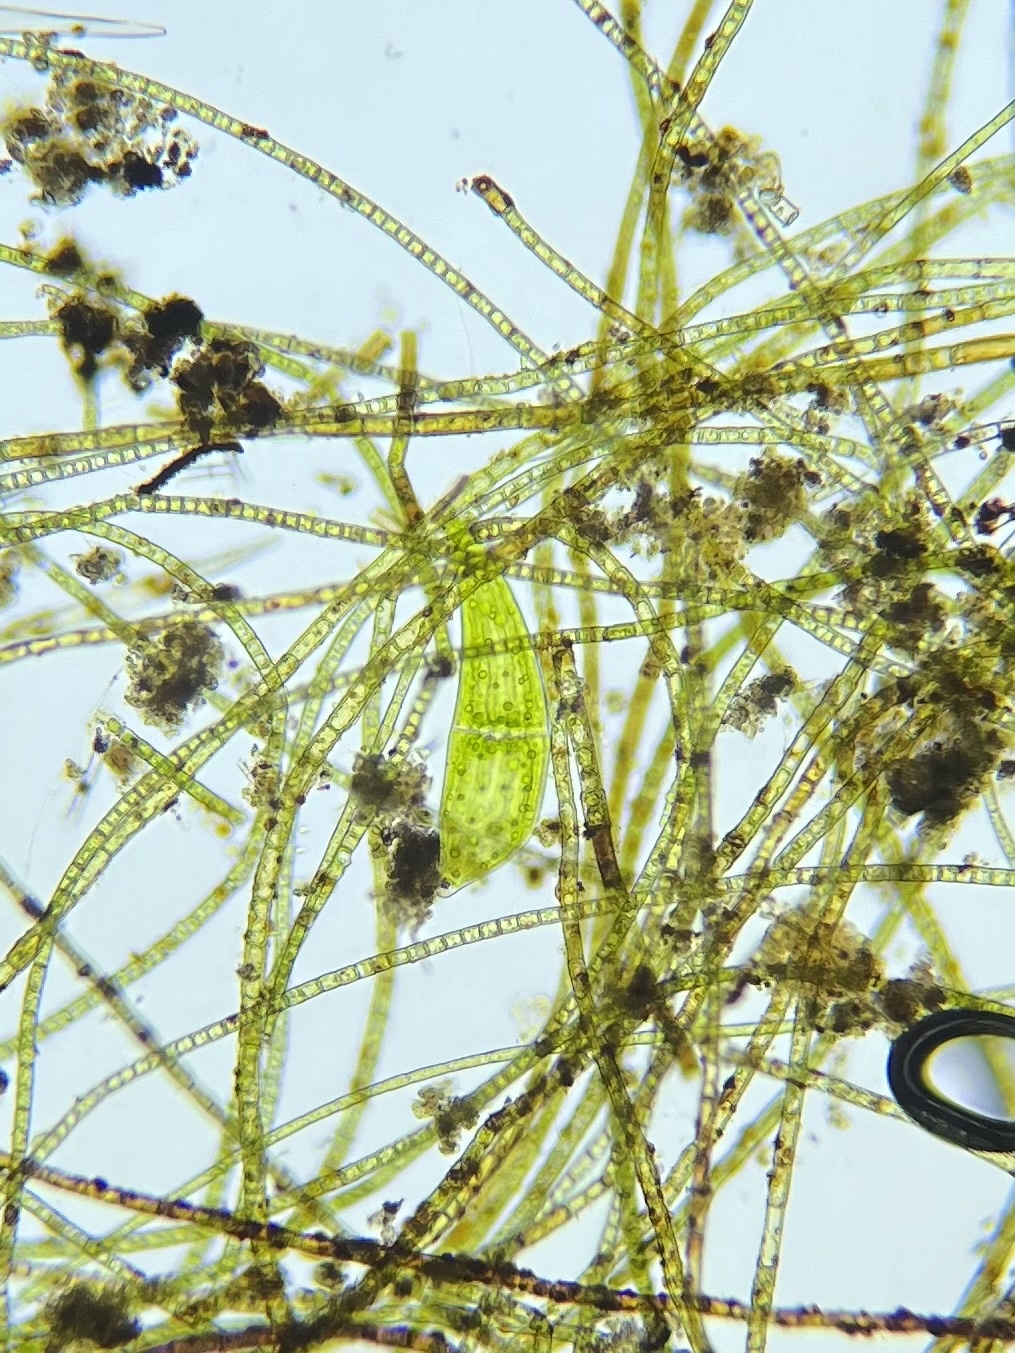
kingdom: Plantae
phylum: Charophyta
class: Zygnematophyceae
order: Zygnematales
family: Closteriaceae
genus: Closterium
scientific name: Closterium ehrenbergii
